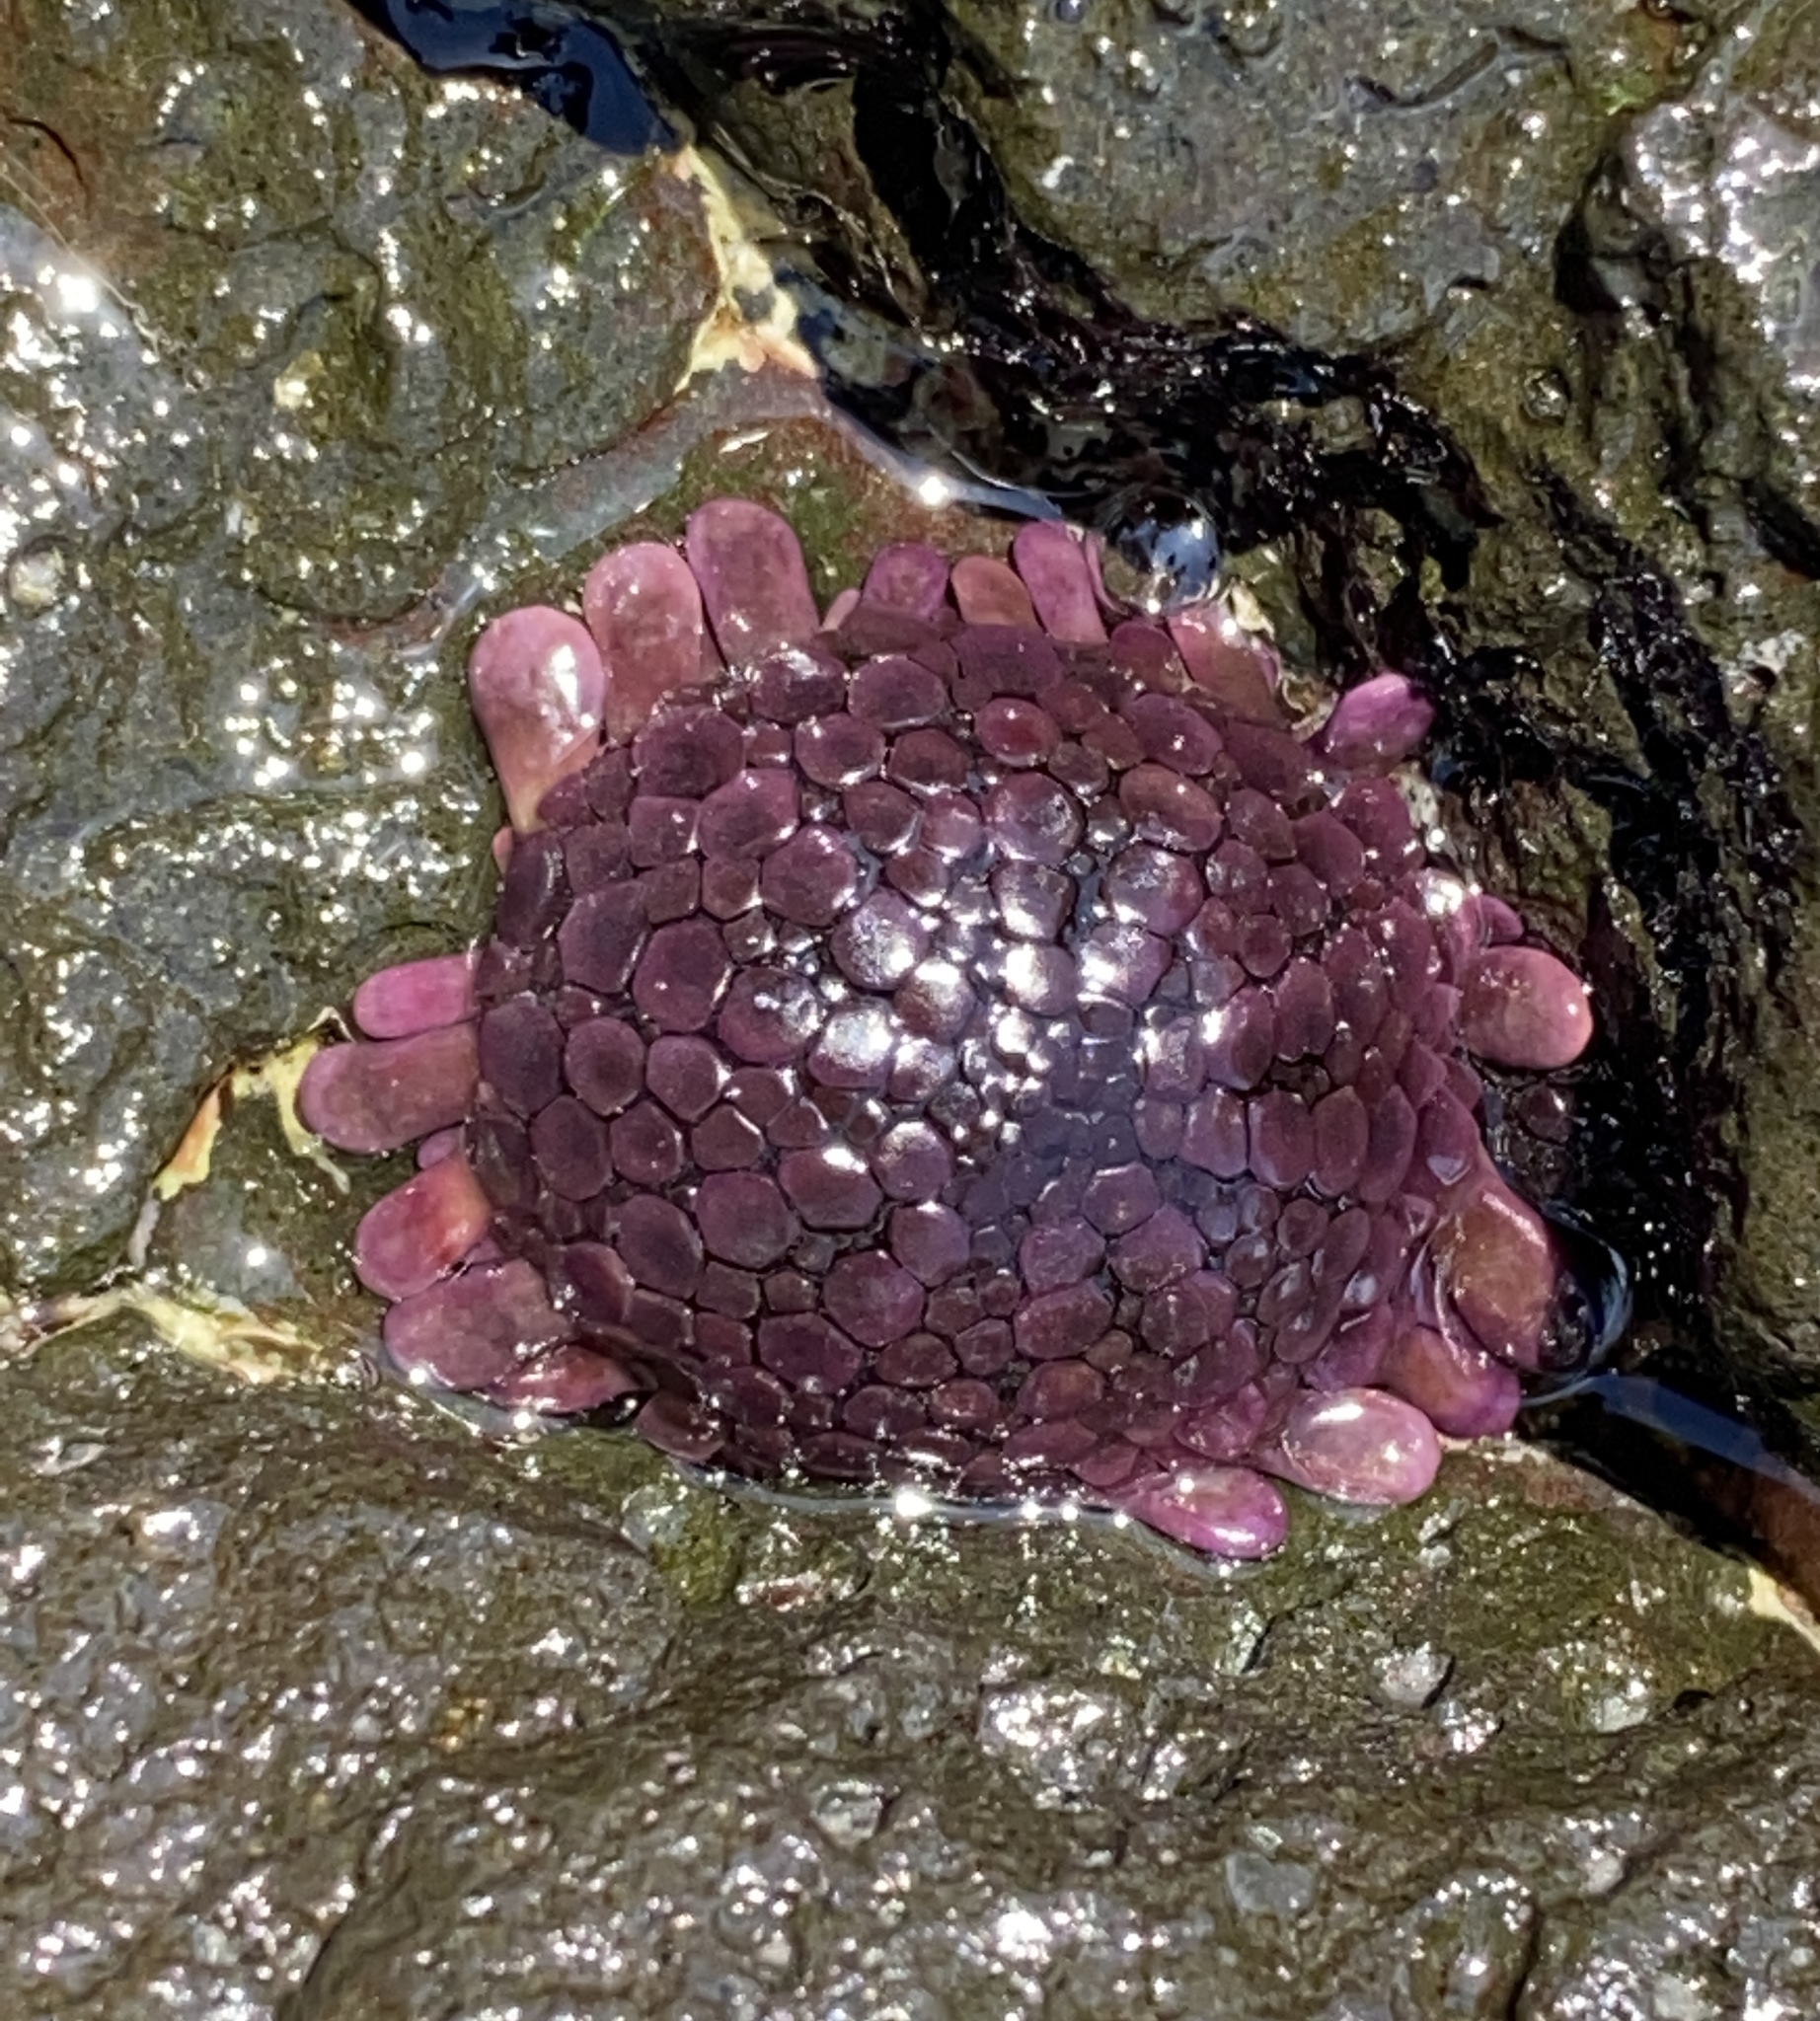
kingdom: Animalia
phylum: Echinodermata
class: Echinoidea
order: Camarodonta
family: Echinometridae
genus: Colobocentrotus
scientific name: Colobocentrotus atratus
